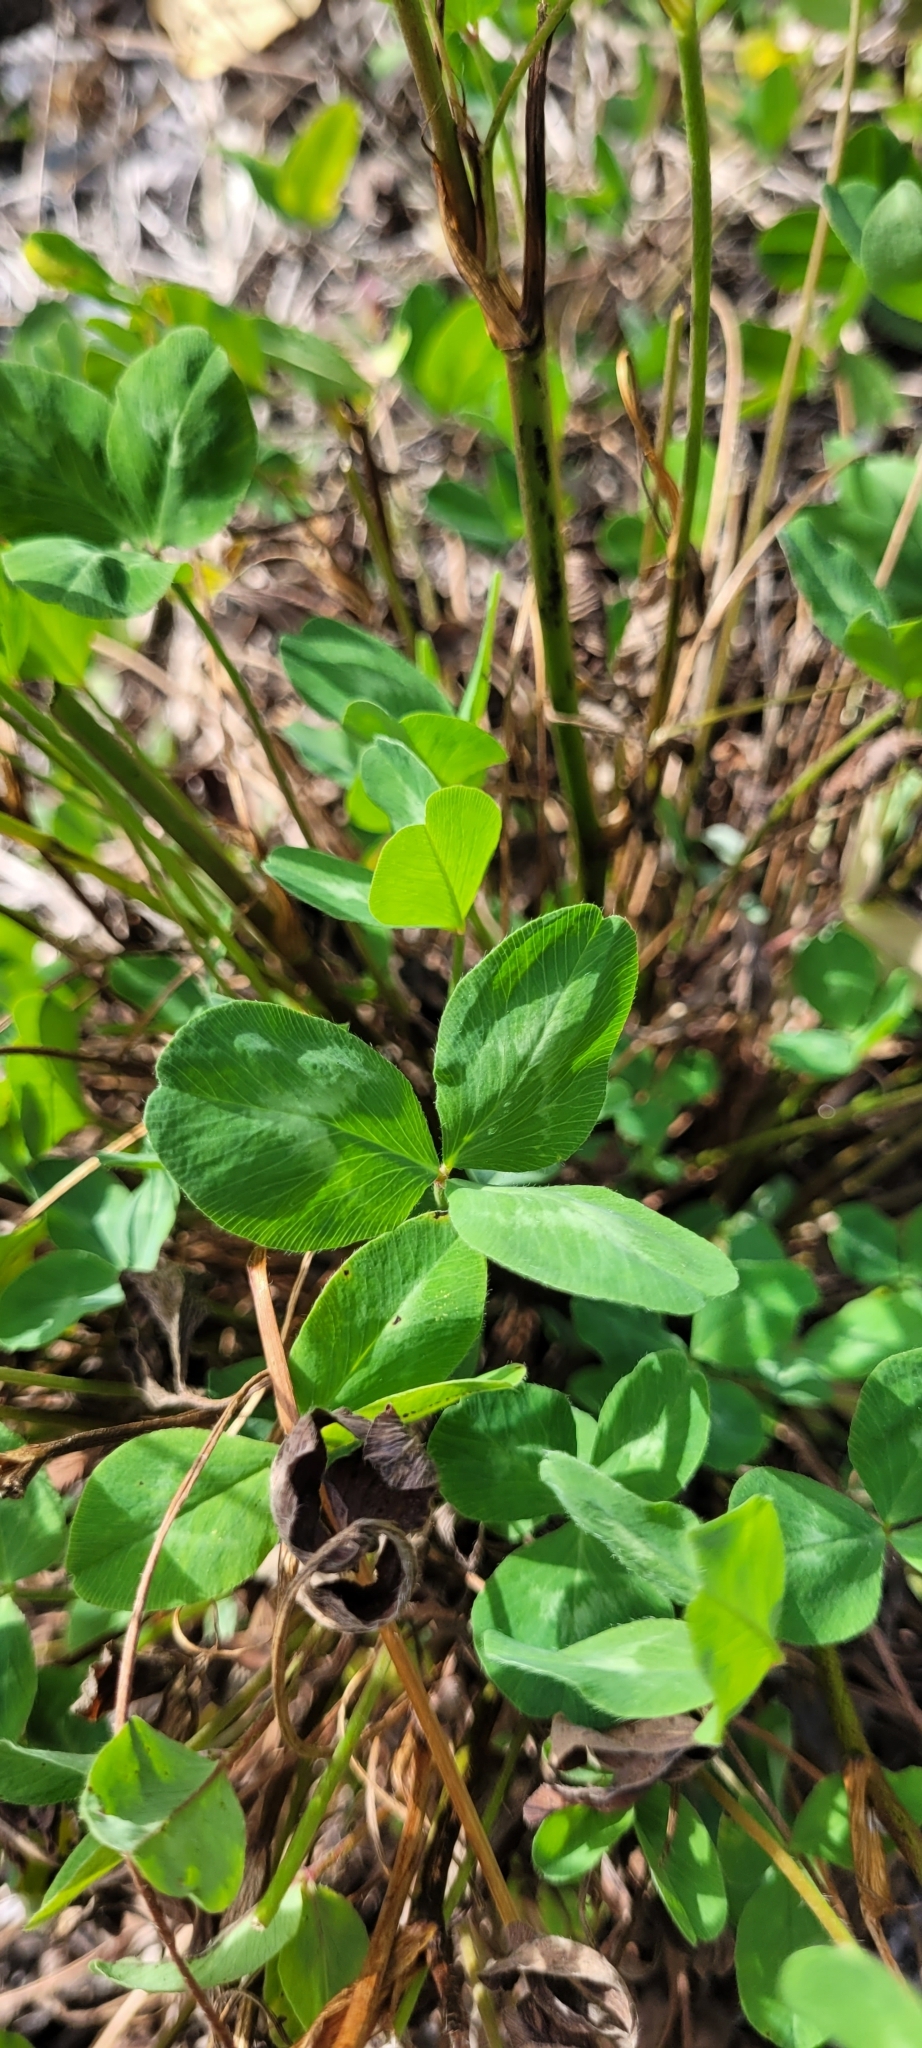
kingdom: Plantae
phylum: Tracheophyta
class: Magnoliopsida
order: Fabales
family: Fabaceae
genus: Trifolium
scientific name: Trifolium pratense
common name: Red clover
